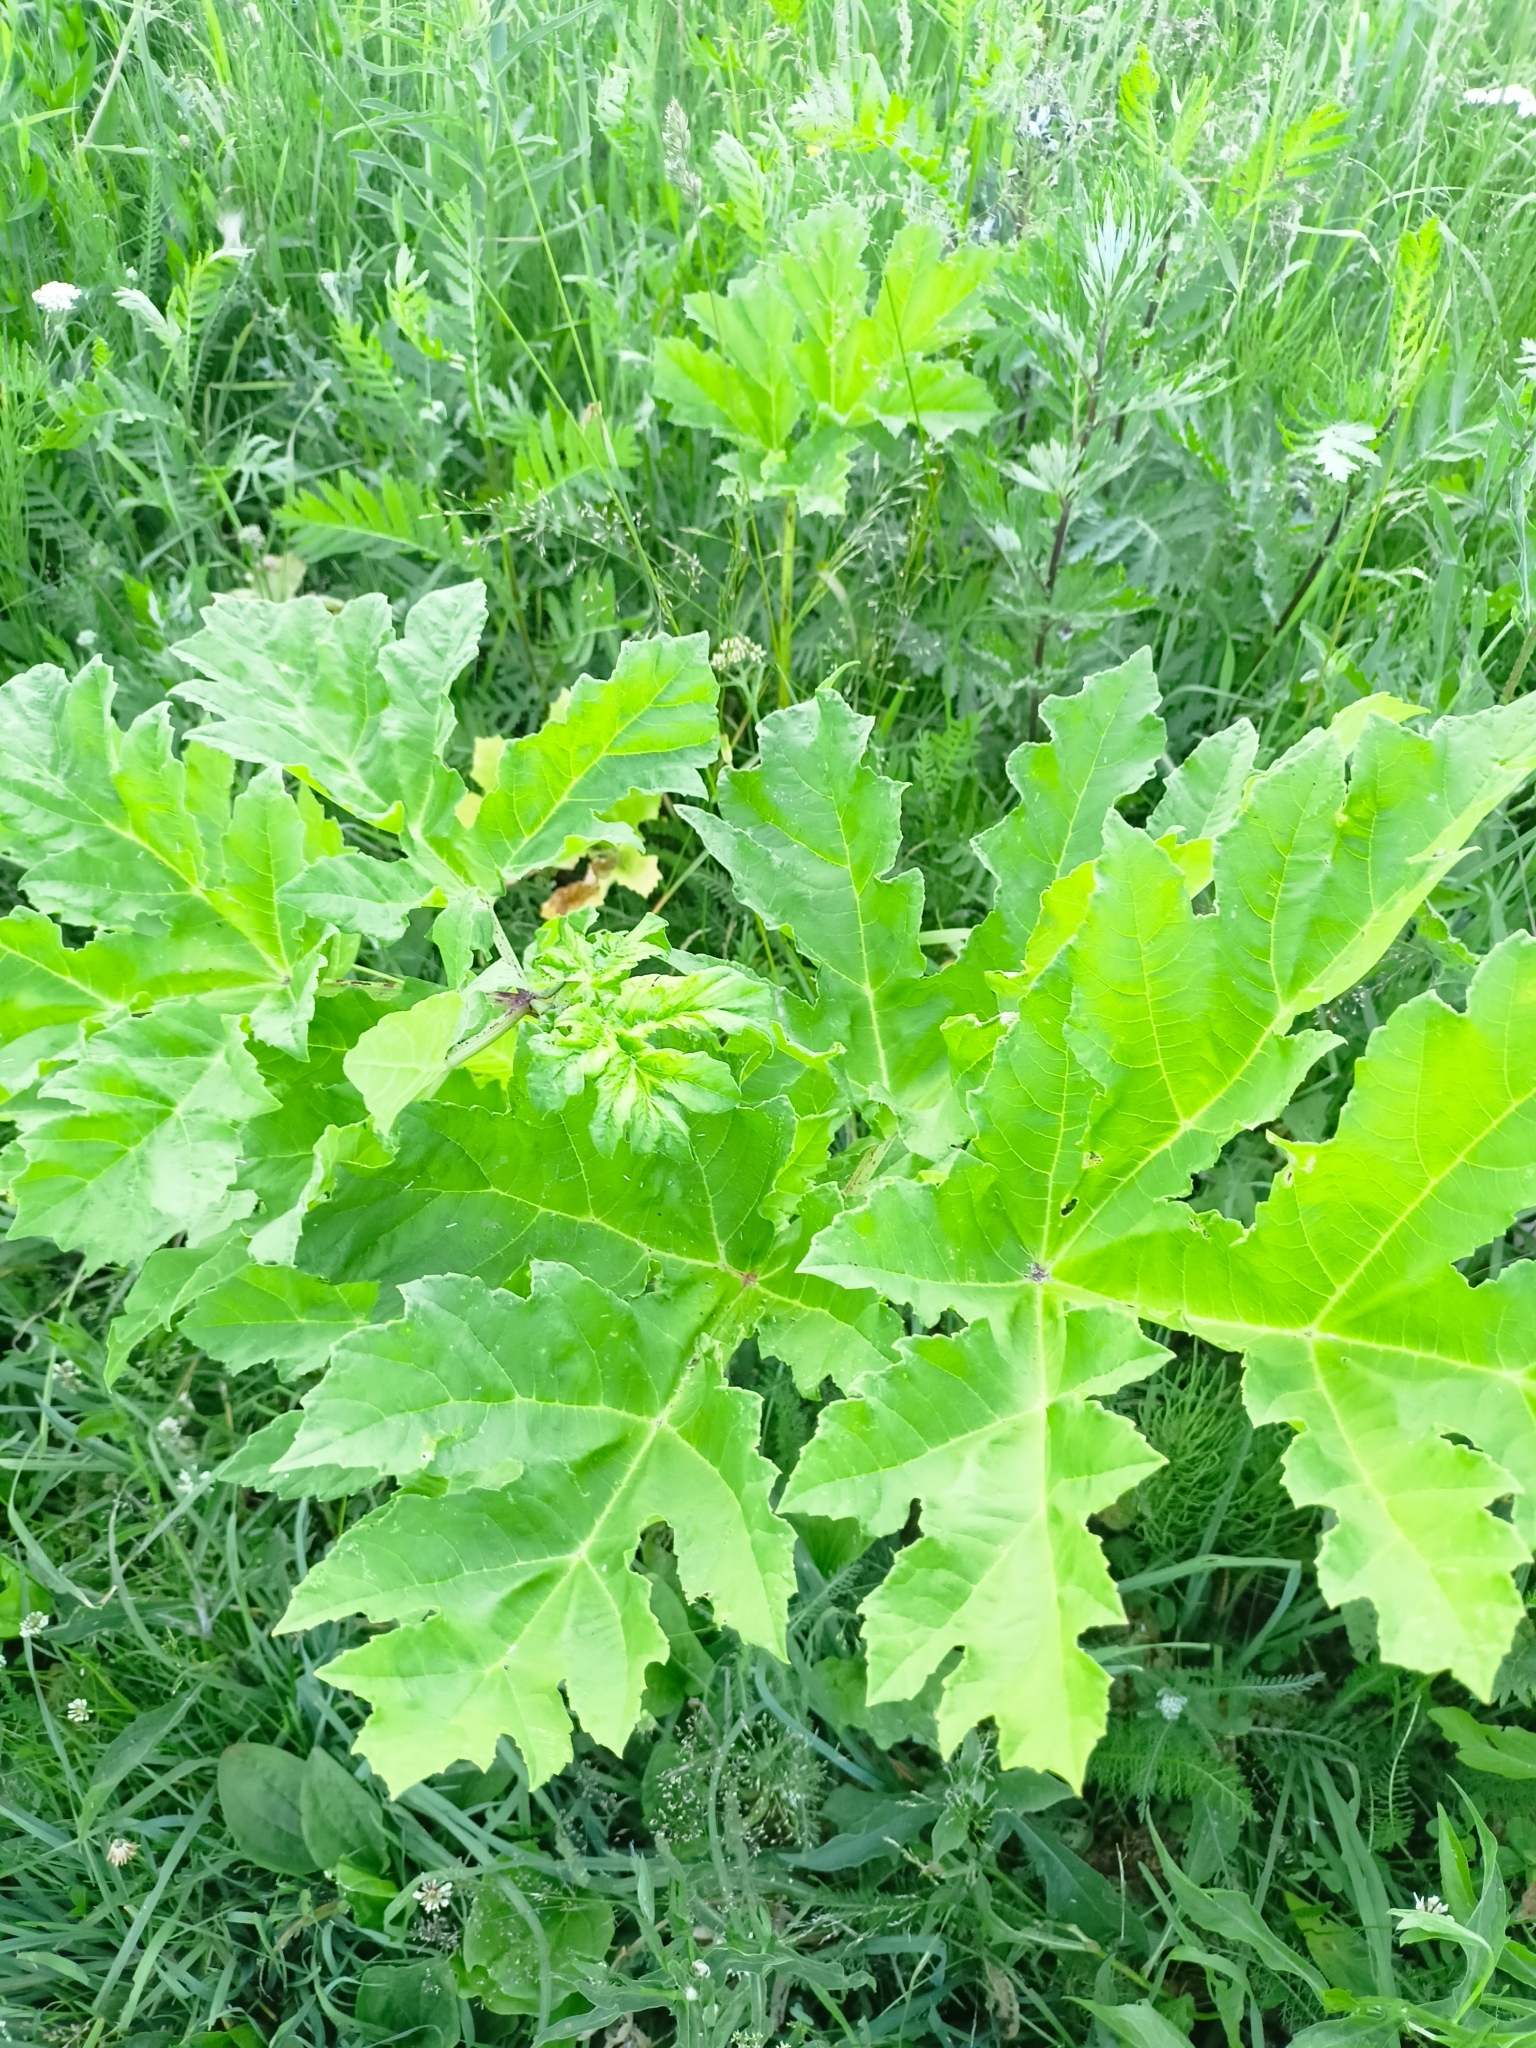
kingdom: Plantae
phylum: Tracheophyta
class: Magnoliopsida
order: Apiales
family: Apiaceae
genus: Heracleum
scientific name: Heracleum sosnowskyi
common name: Sosnowsky's hogweed
